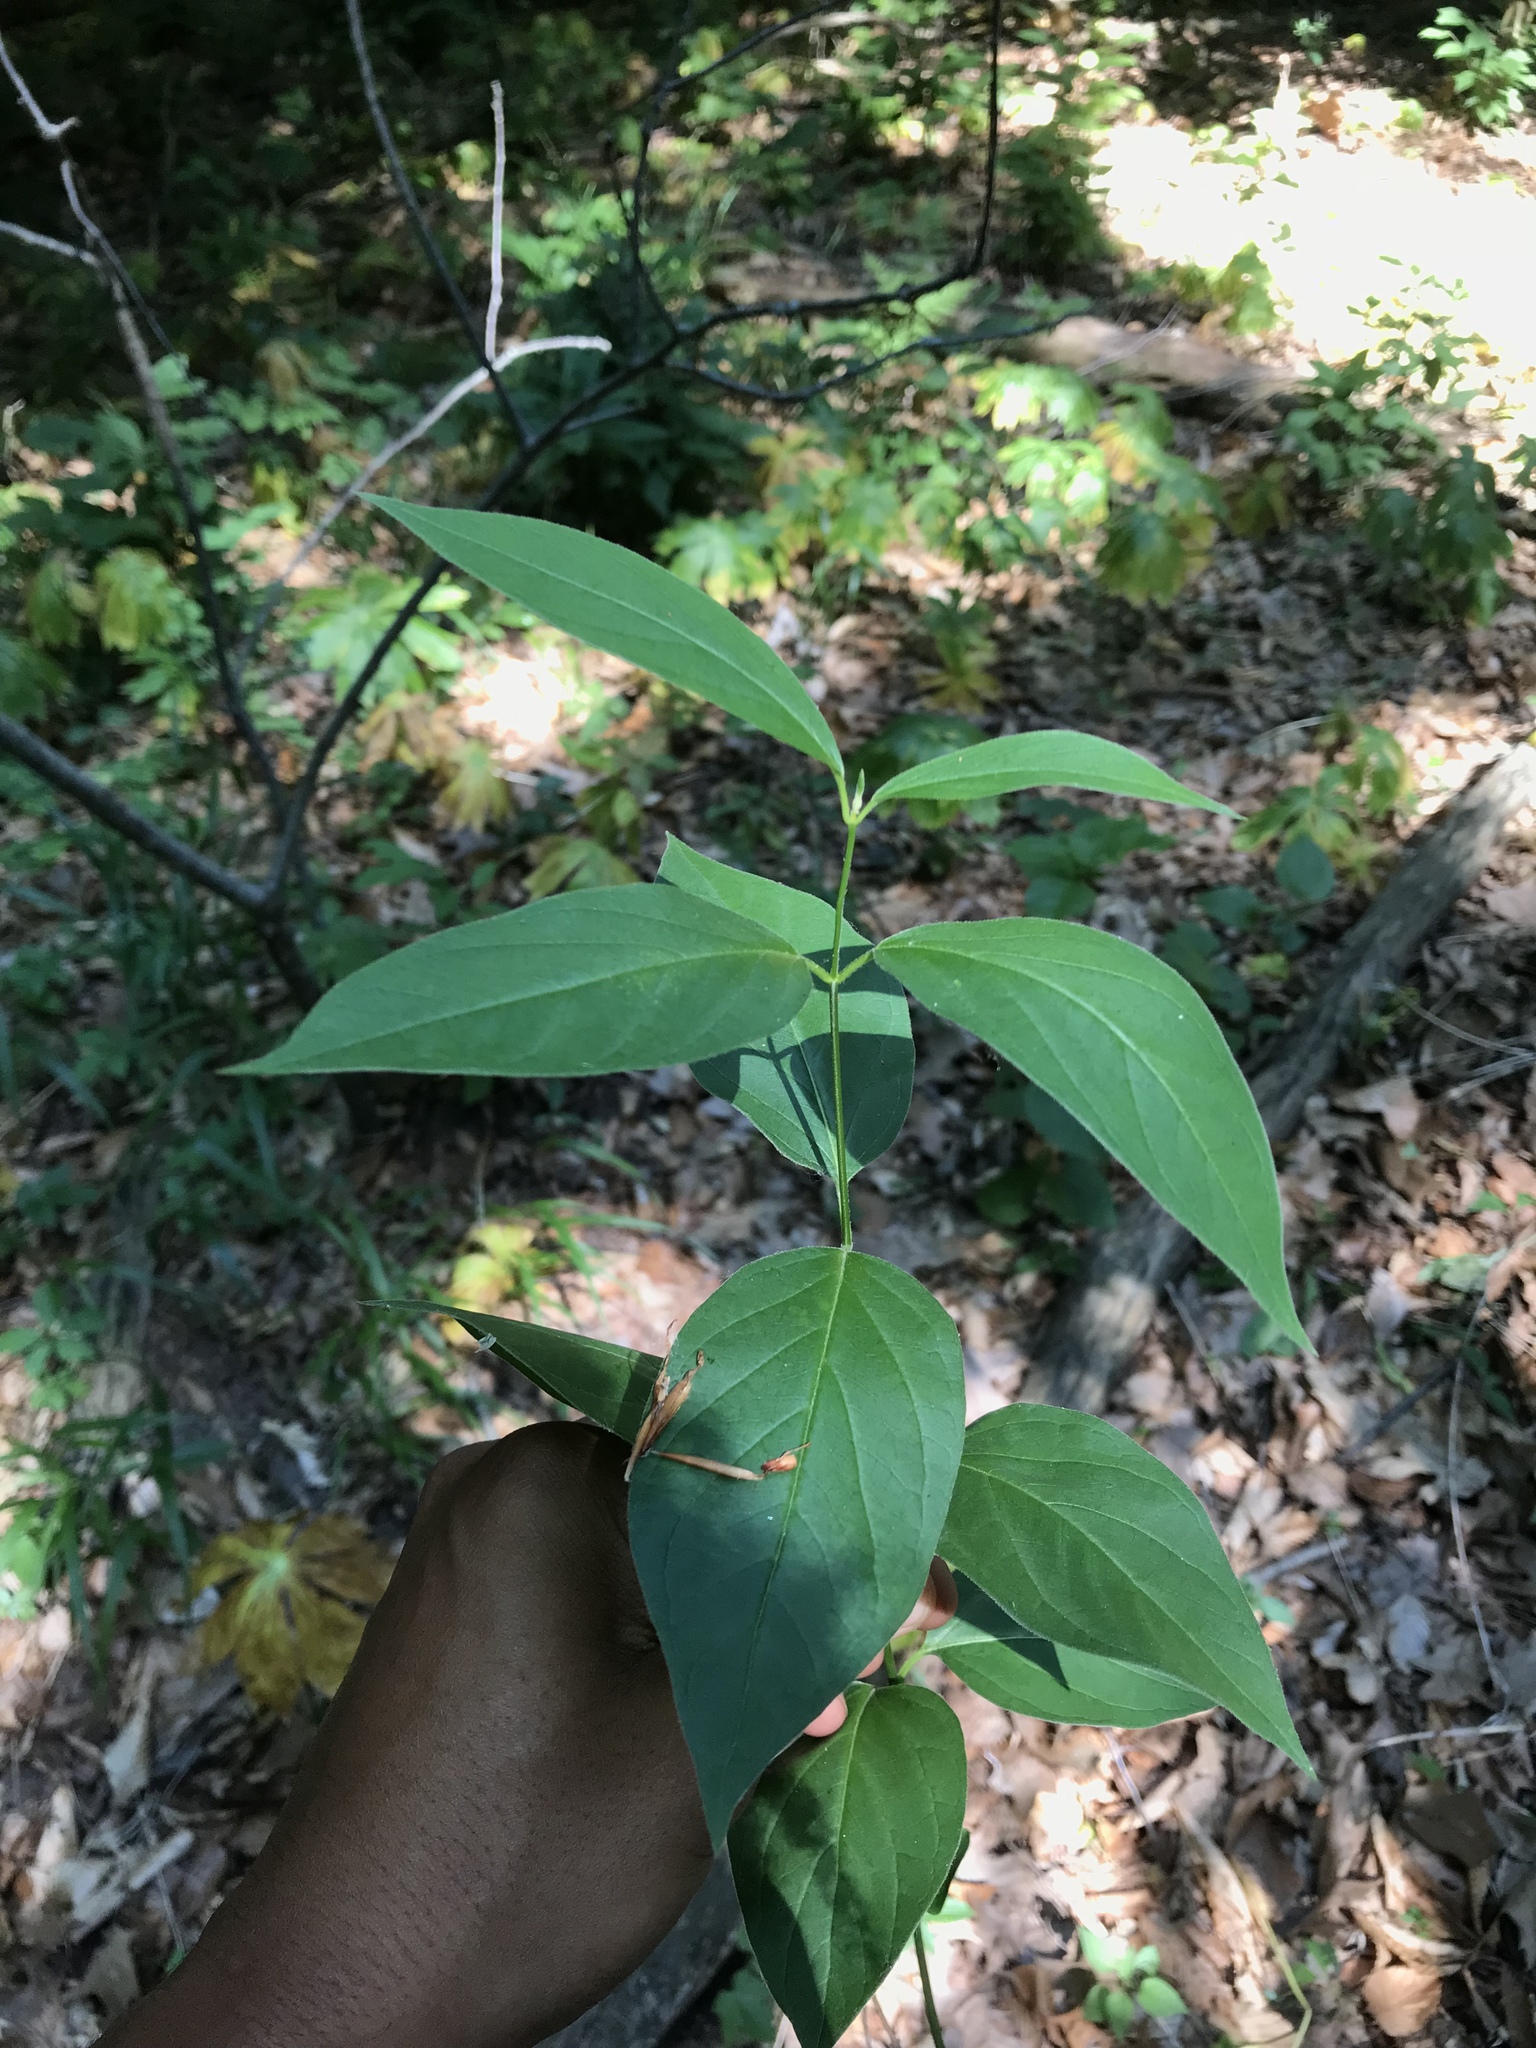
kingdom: Plantae
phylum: Tracheophyta
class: Magnoliopsida
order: Gentianales
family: Apocynaceae
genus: Vincetoxicum
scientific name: Vincetoxicum nigrum
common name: Black swallow-wort
